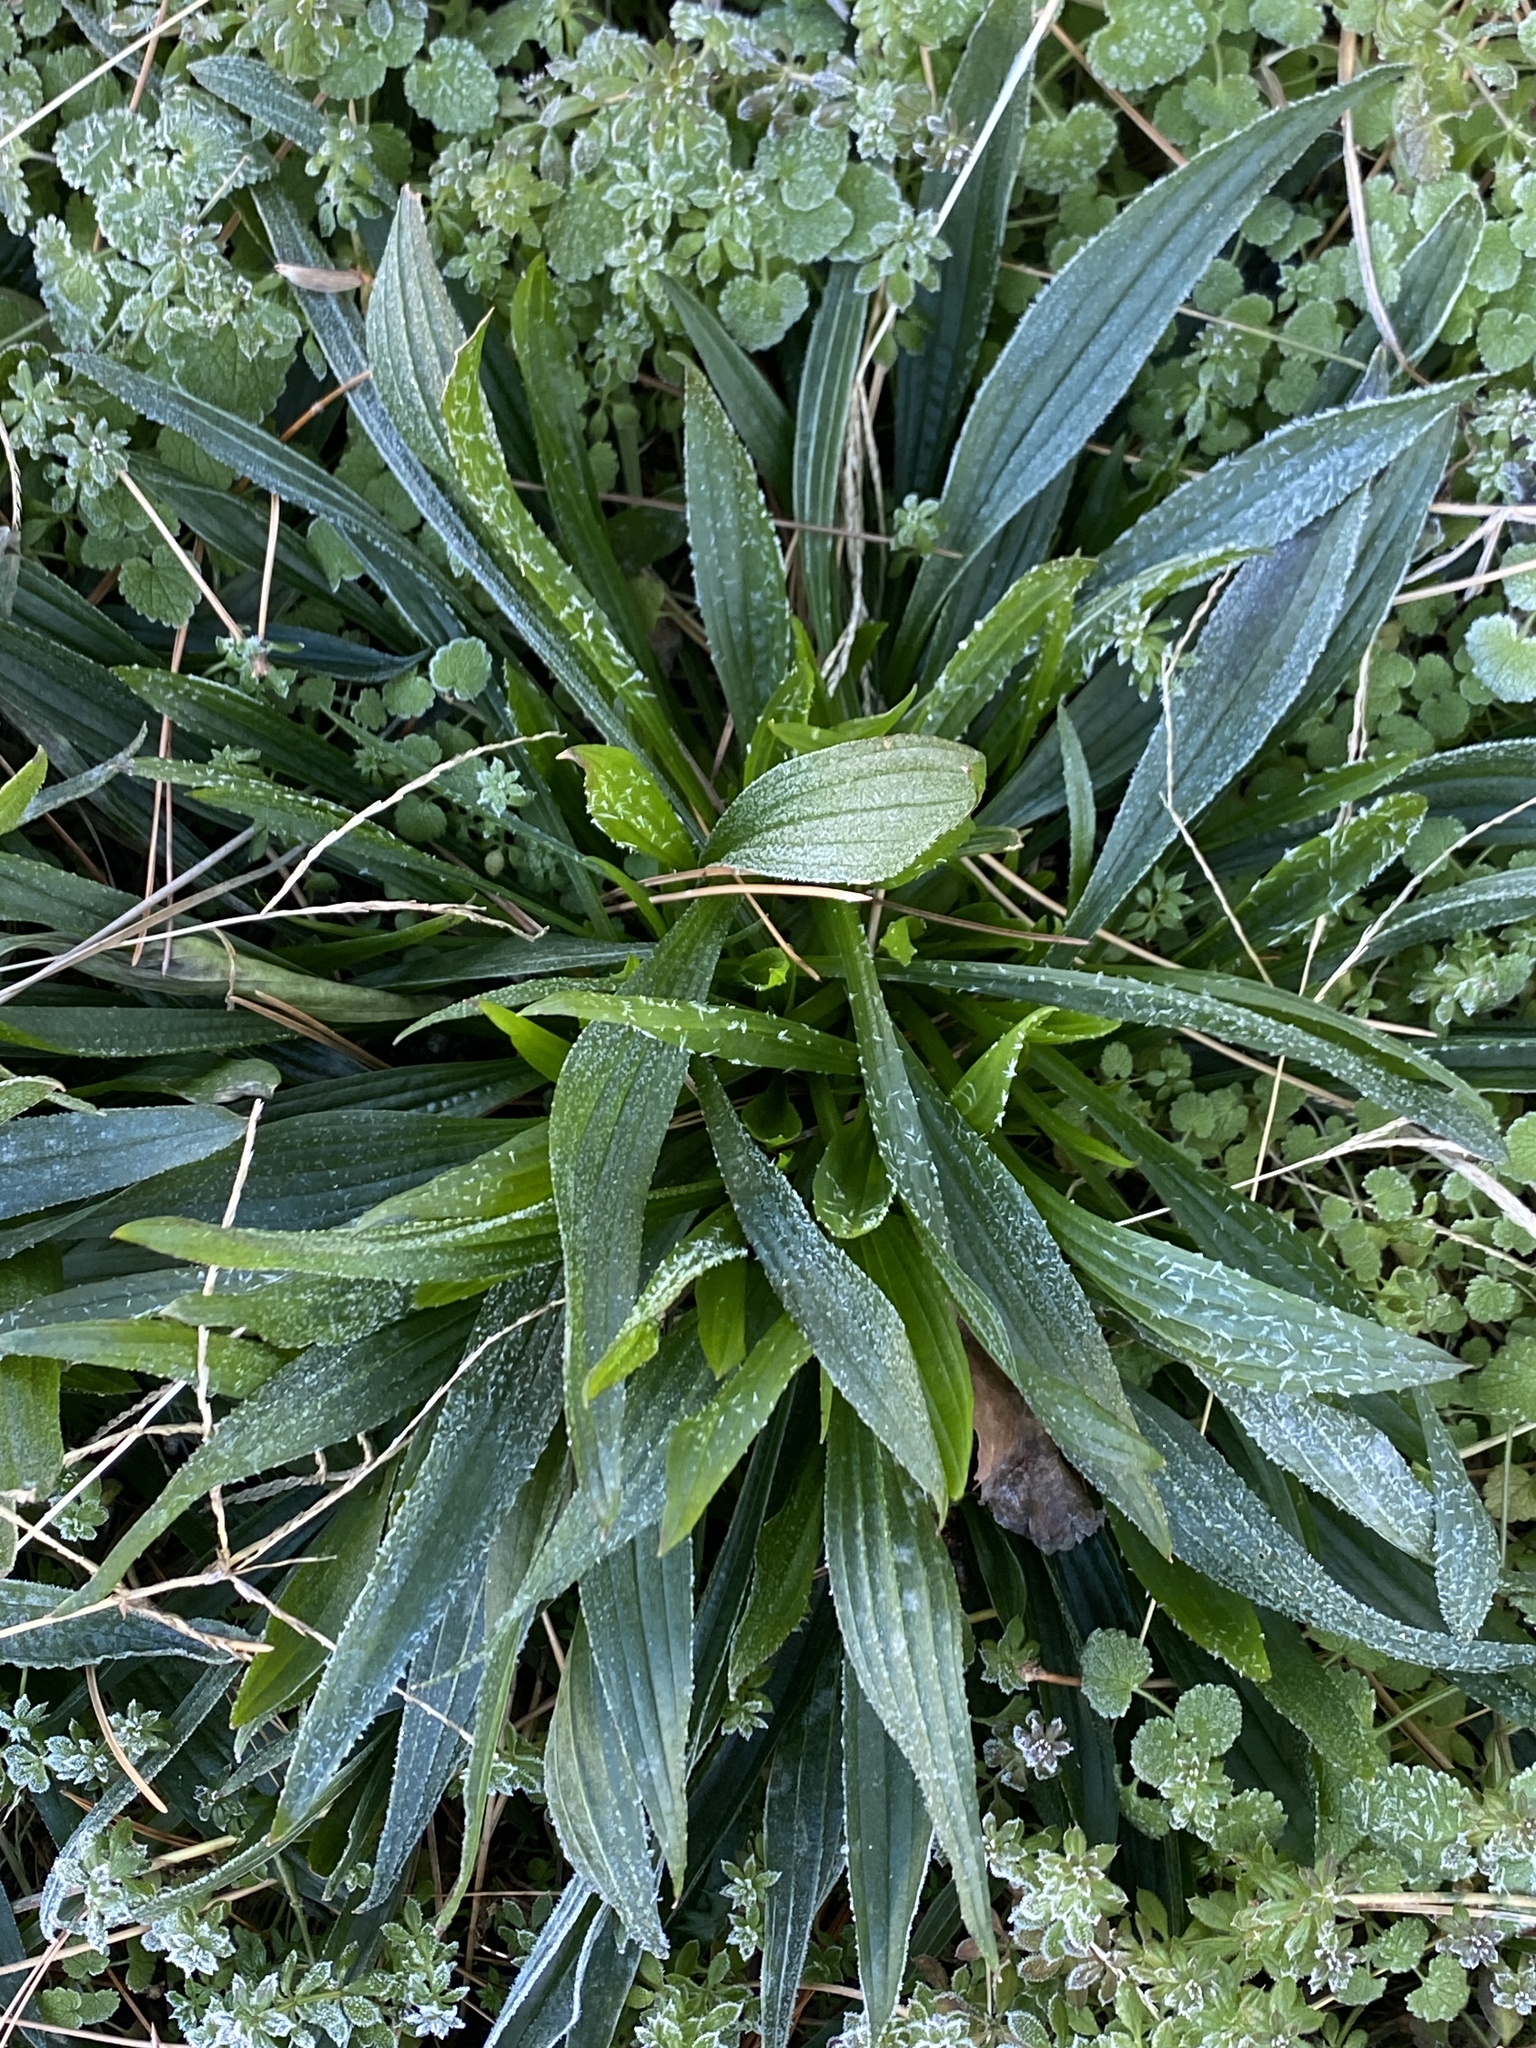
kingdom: Plantae
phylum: Tracheophyta
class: Magnoliopsida
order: Lamiales
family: Plantaginaceae
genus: Plantago
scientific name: Plantago lanceolata
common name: Ribwort plantain
